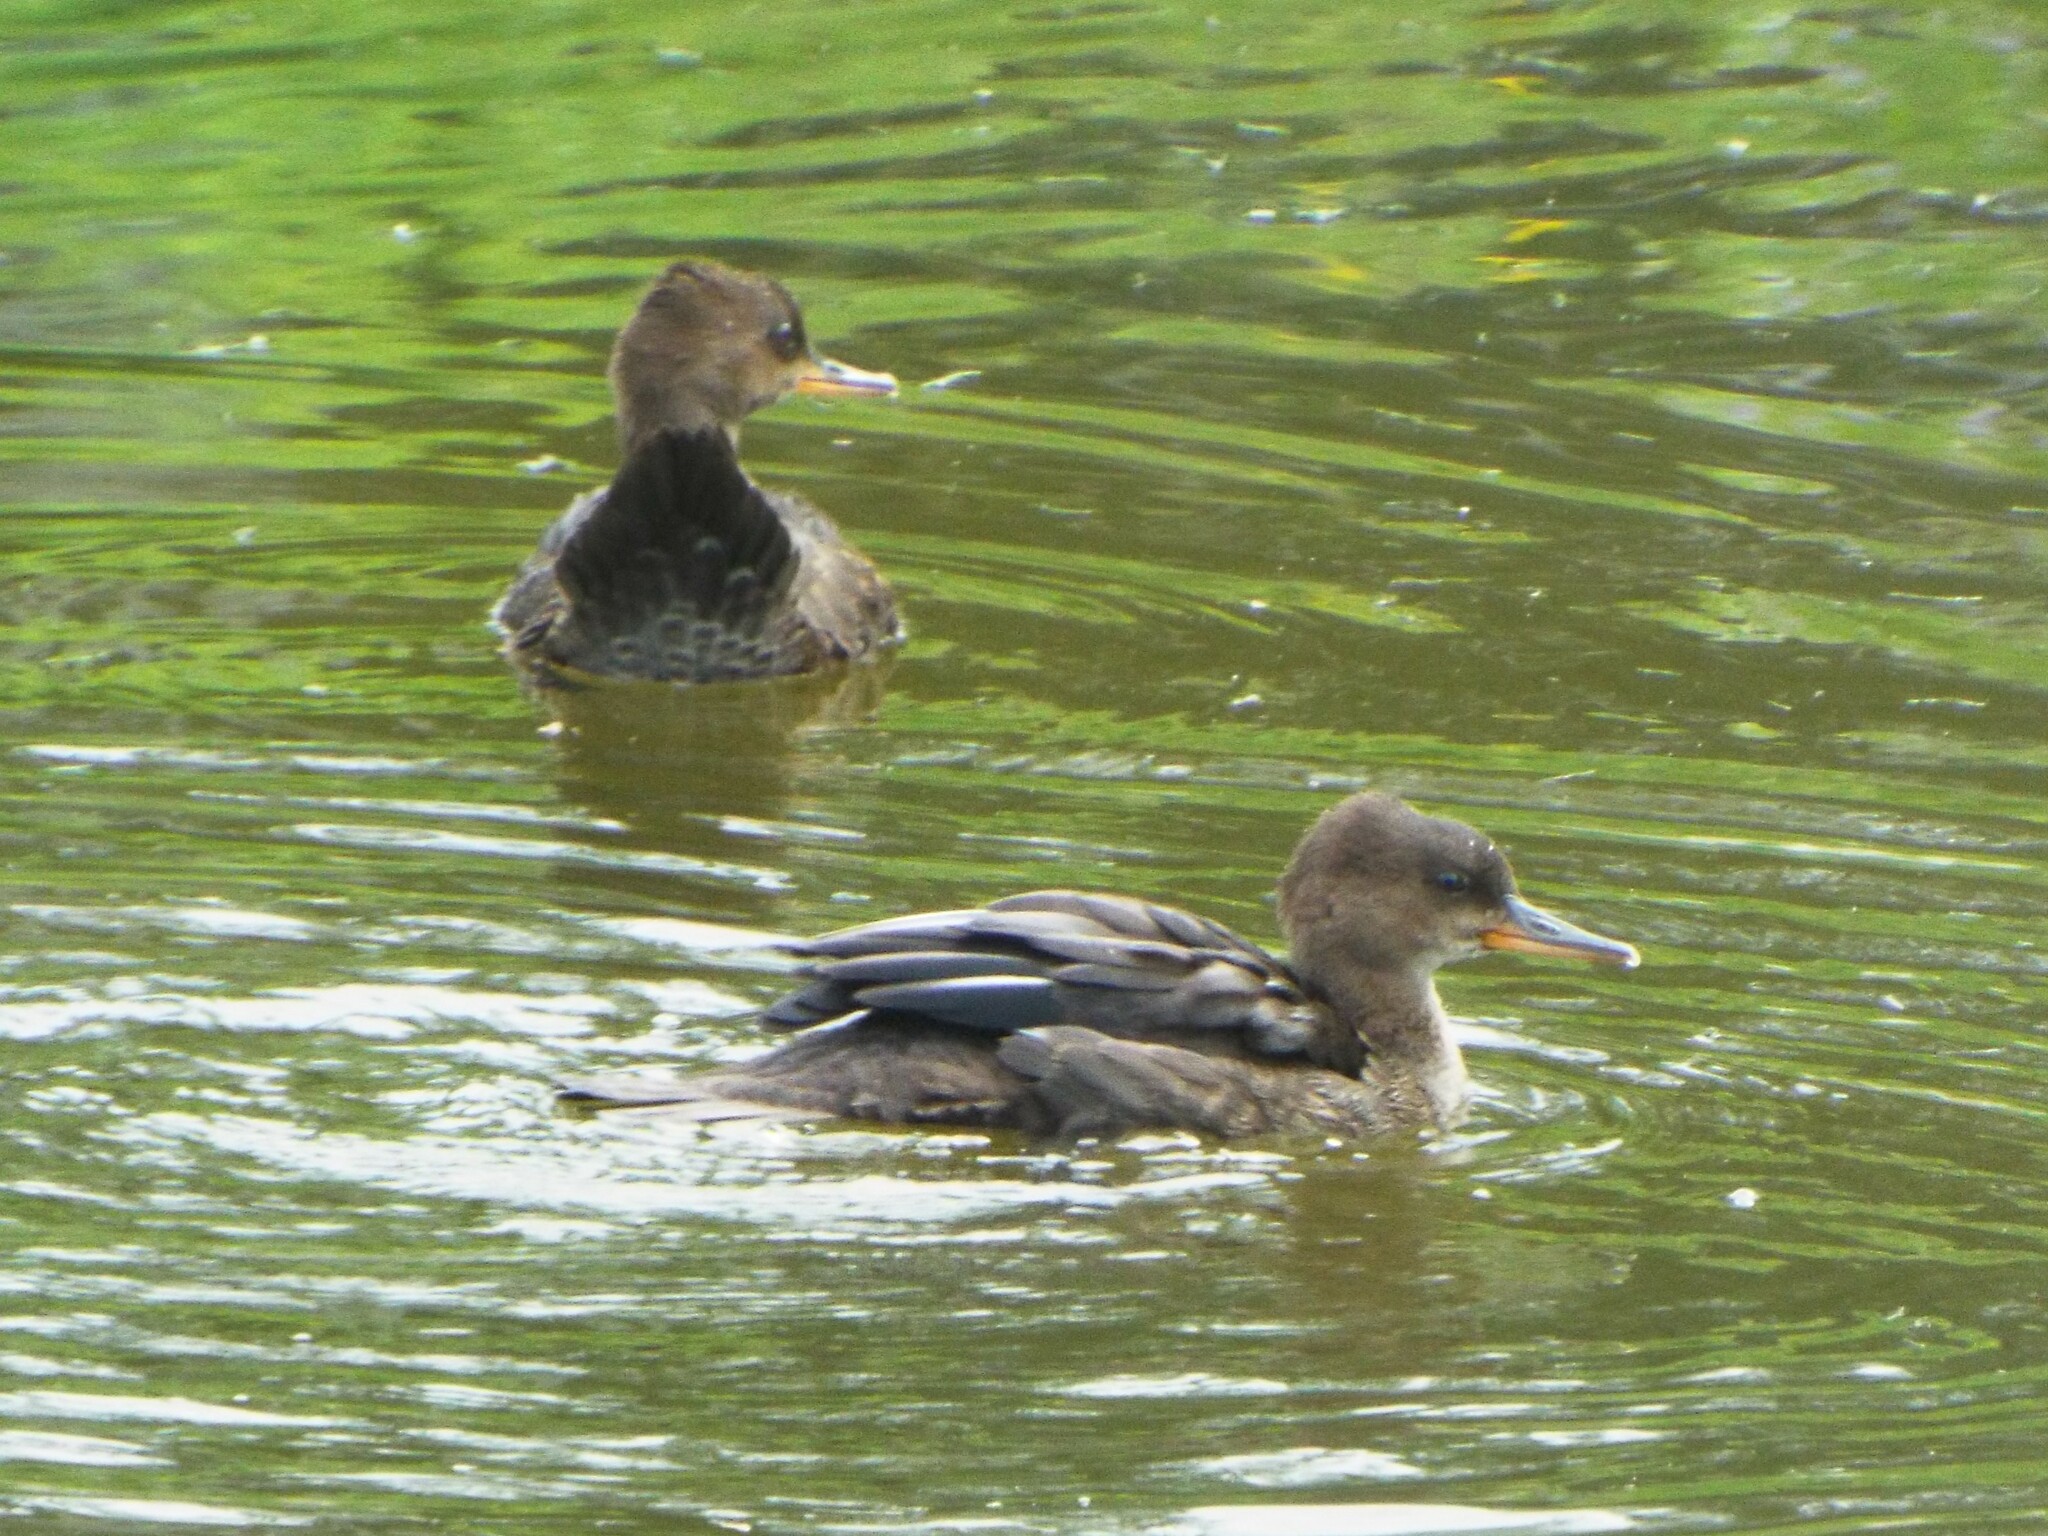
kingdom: Animalia
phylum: Chordata
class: Aves
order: Anseriformes
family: Anatidae
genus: Lophodytes
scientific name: Lophodytes cucullatus
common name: Hooded merganser
